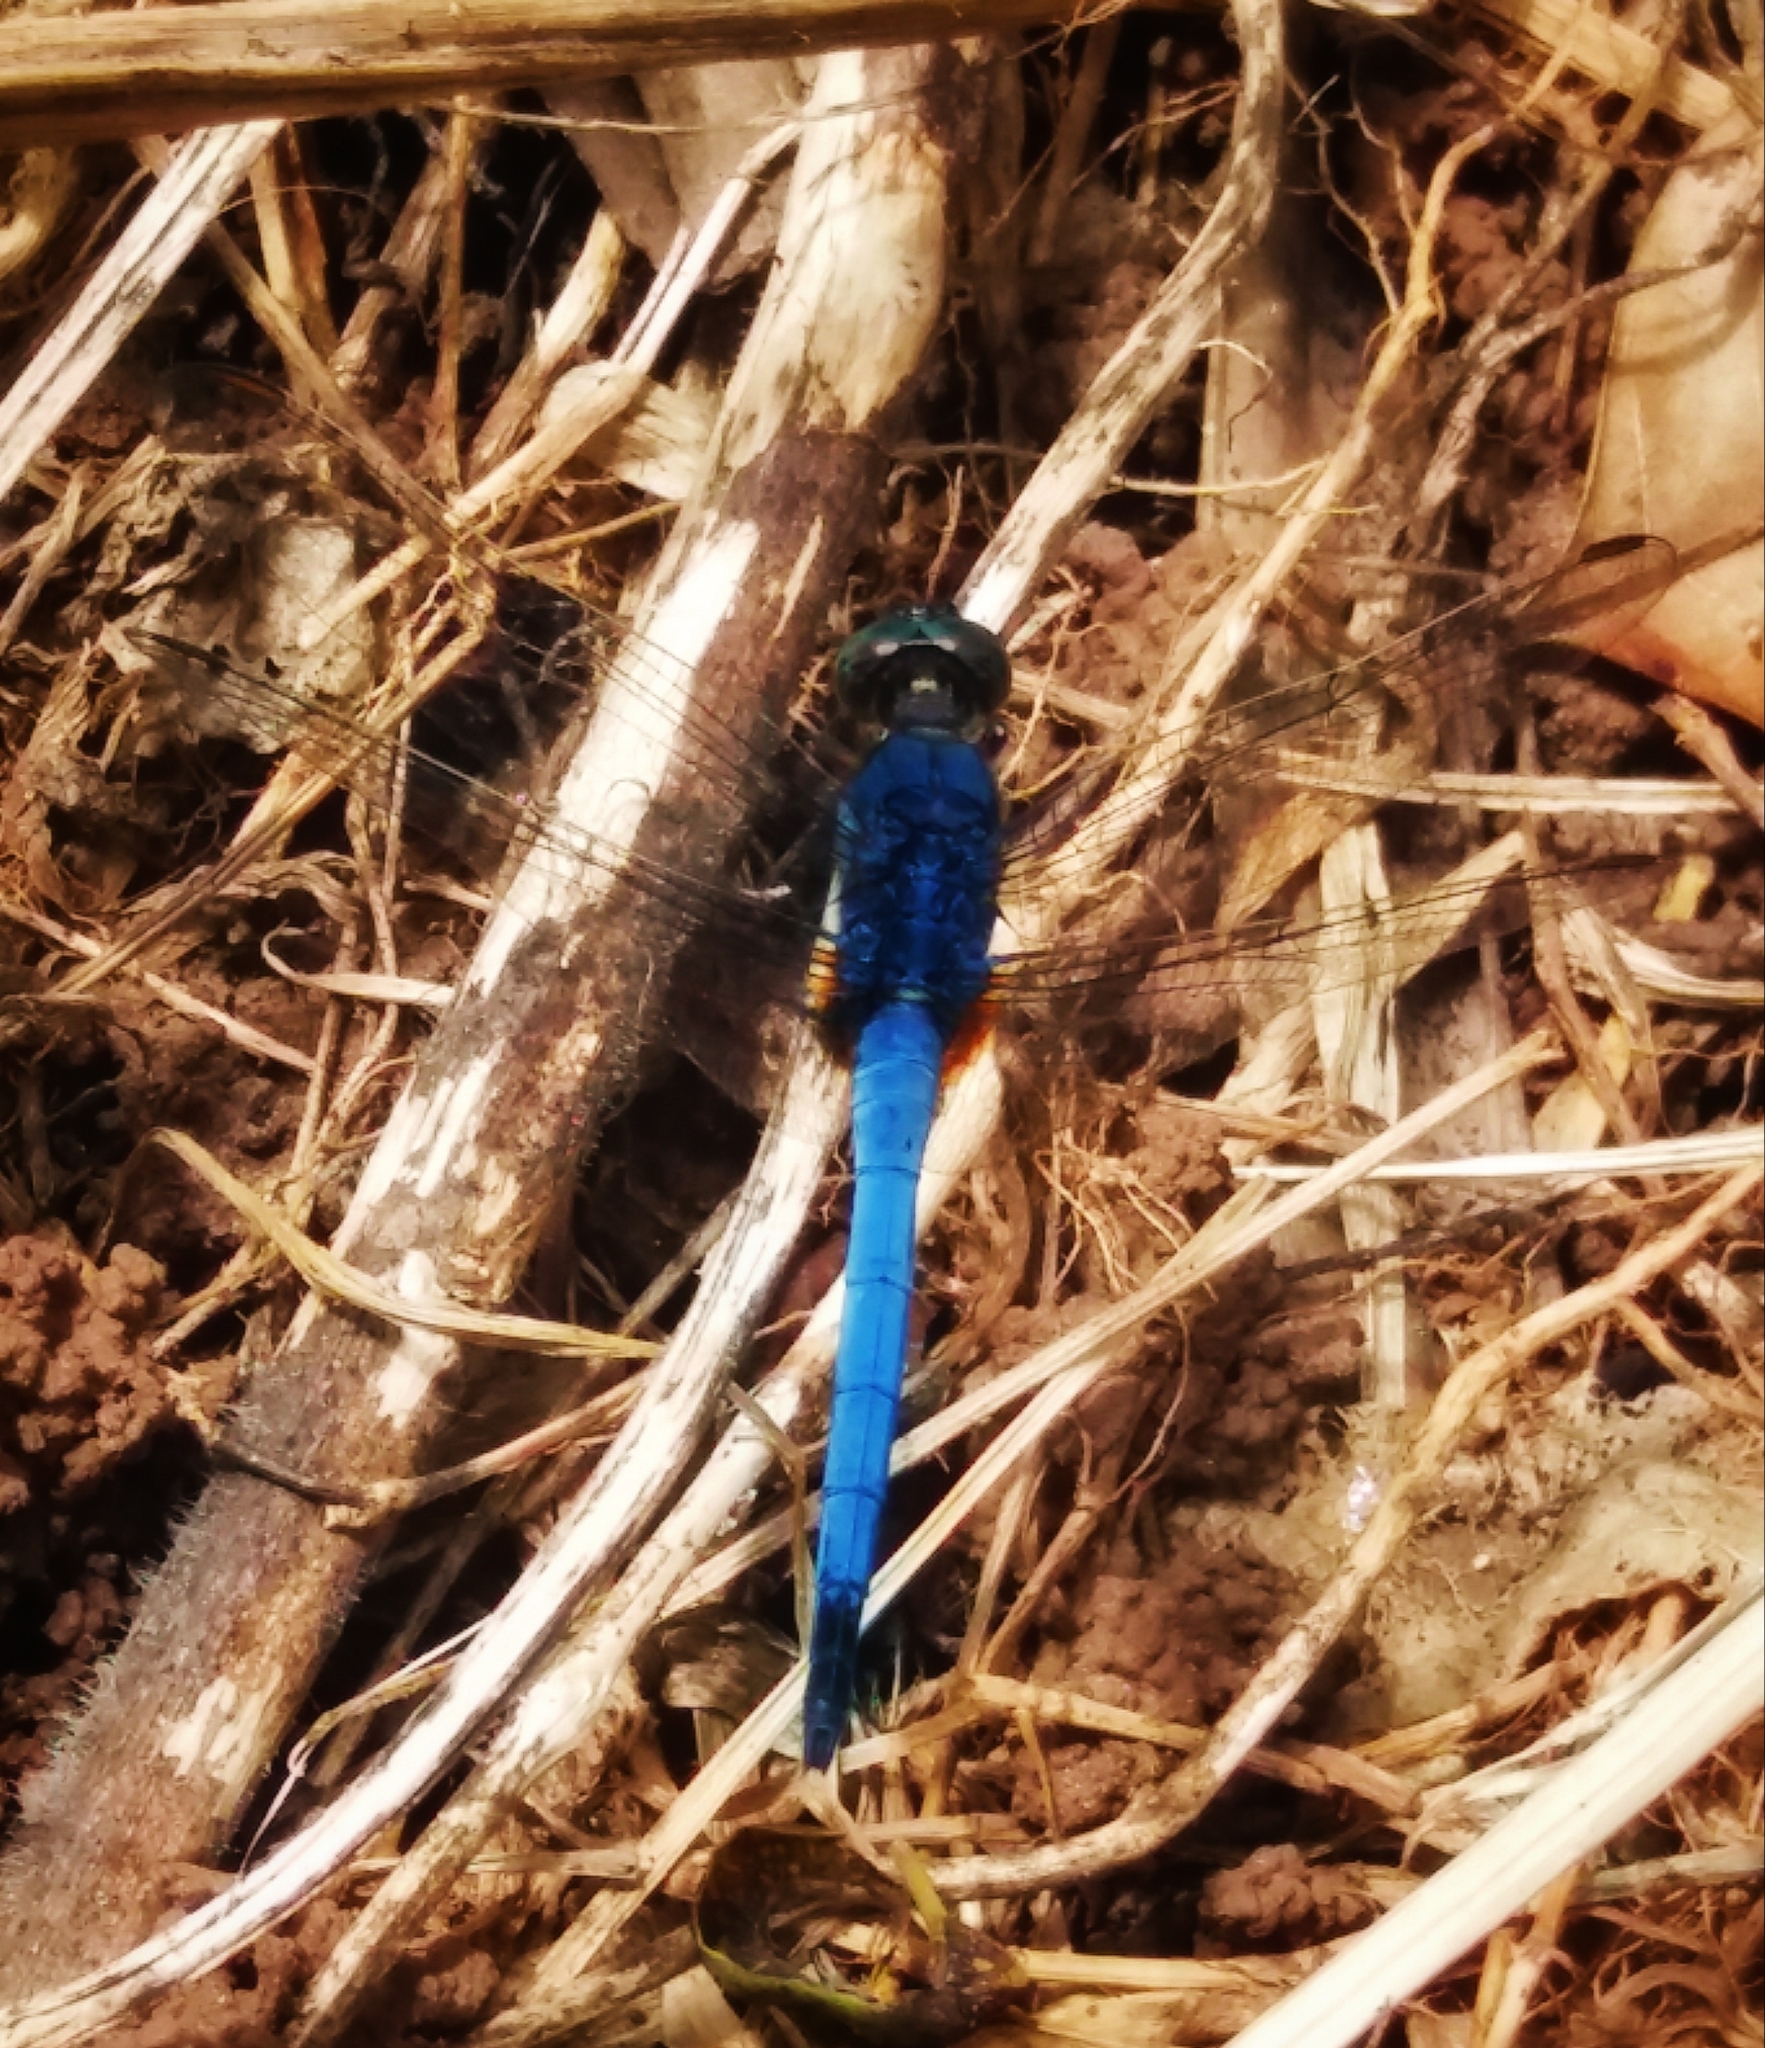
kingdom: Animalia
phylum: Arthropoda
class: Insecta
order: Odonata
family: Libellulidae
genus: Orthetrum
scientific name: Orthetrum glaucum
